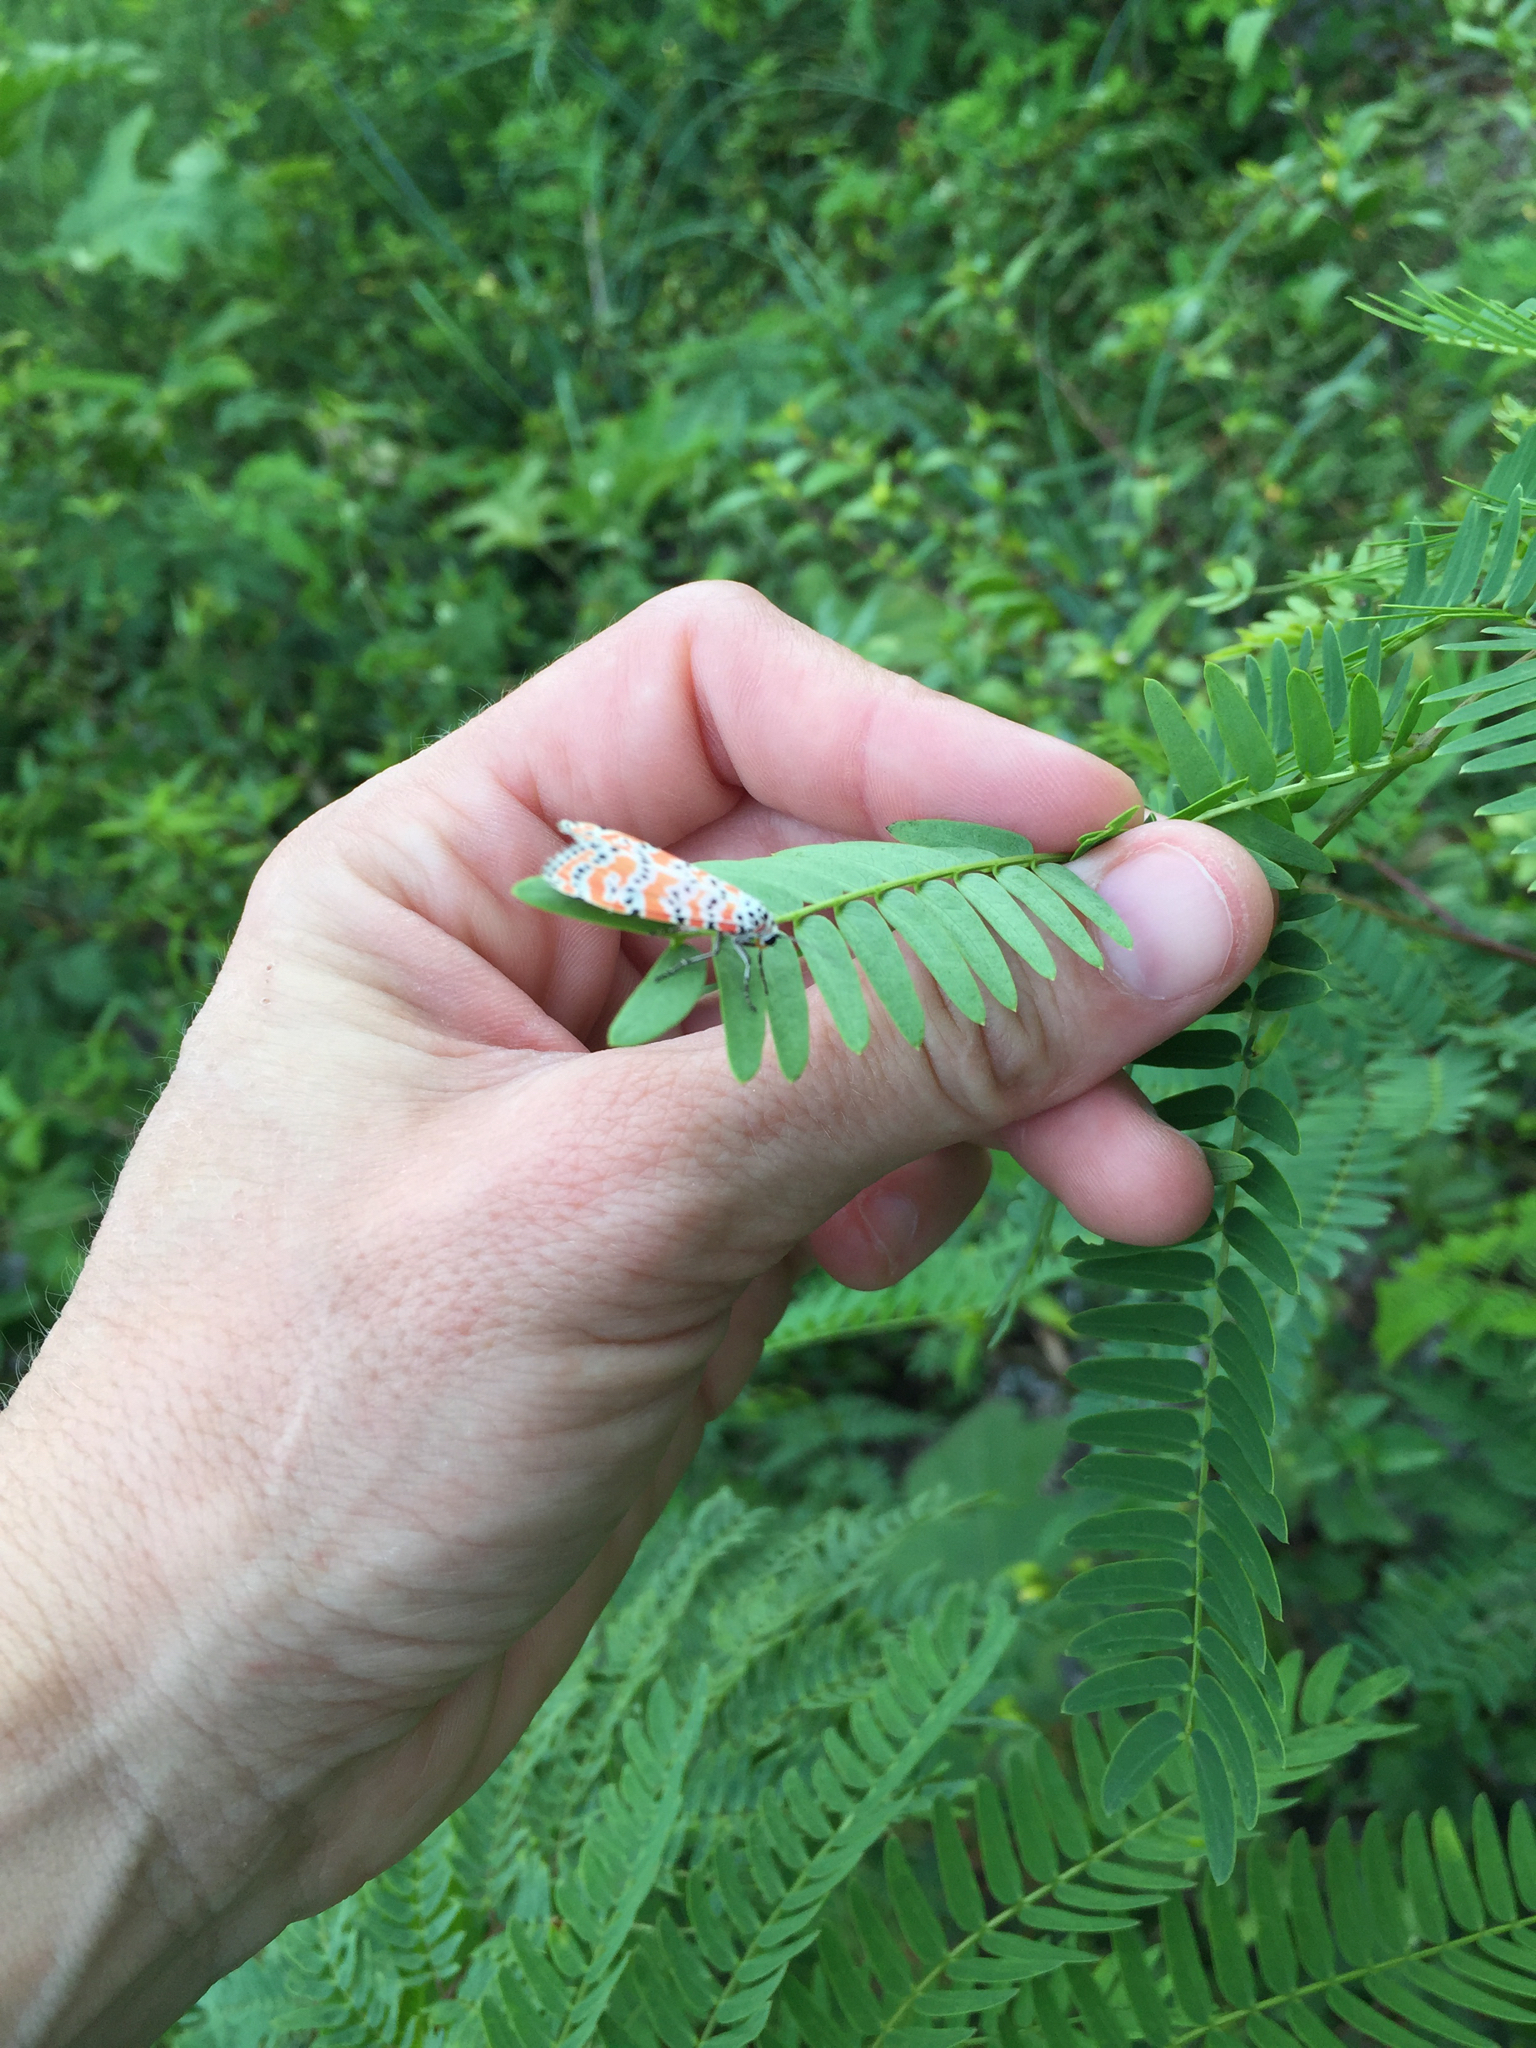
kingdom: Animalia
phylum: Arthropoda
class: Insecta
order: Lepidoptera
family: Erebidae
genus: Utetheisa
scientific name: Utetheisa ornatrix
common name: Beautiful utetheisa
